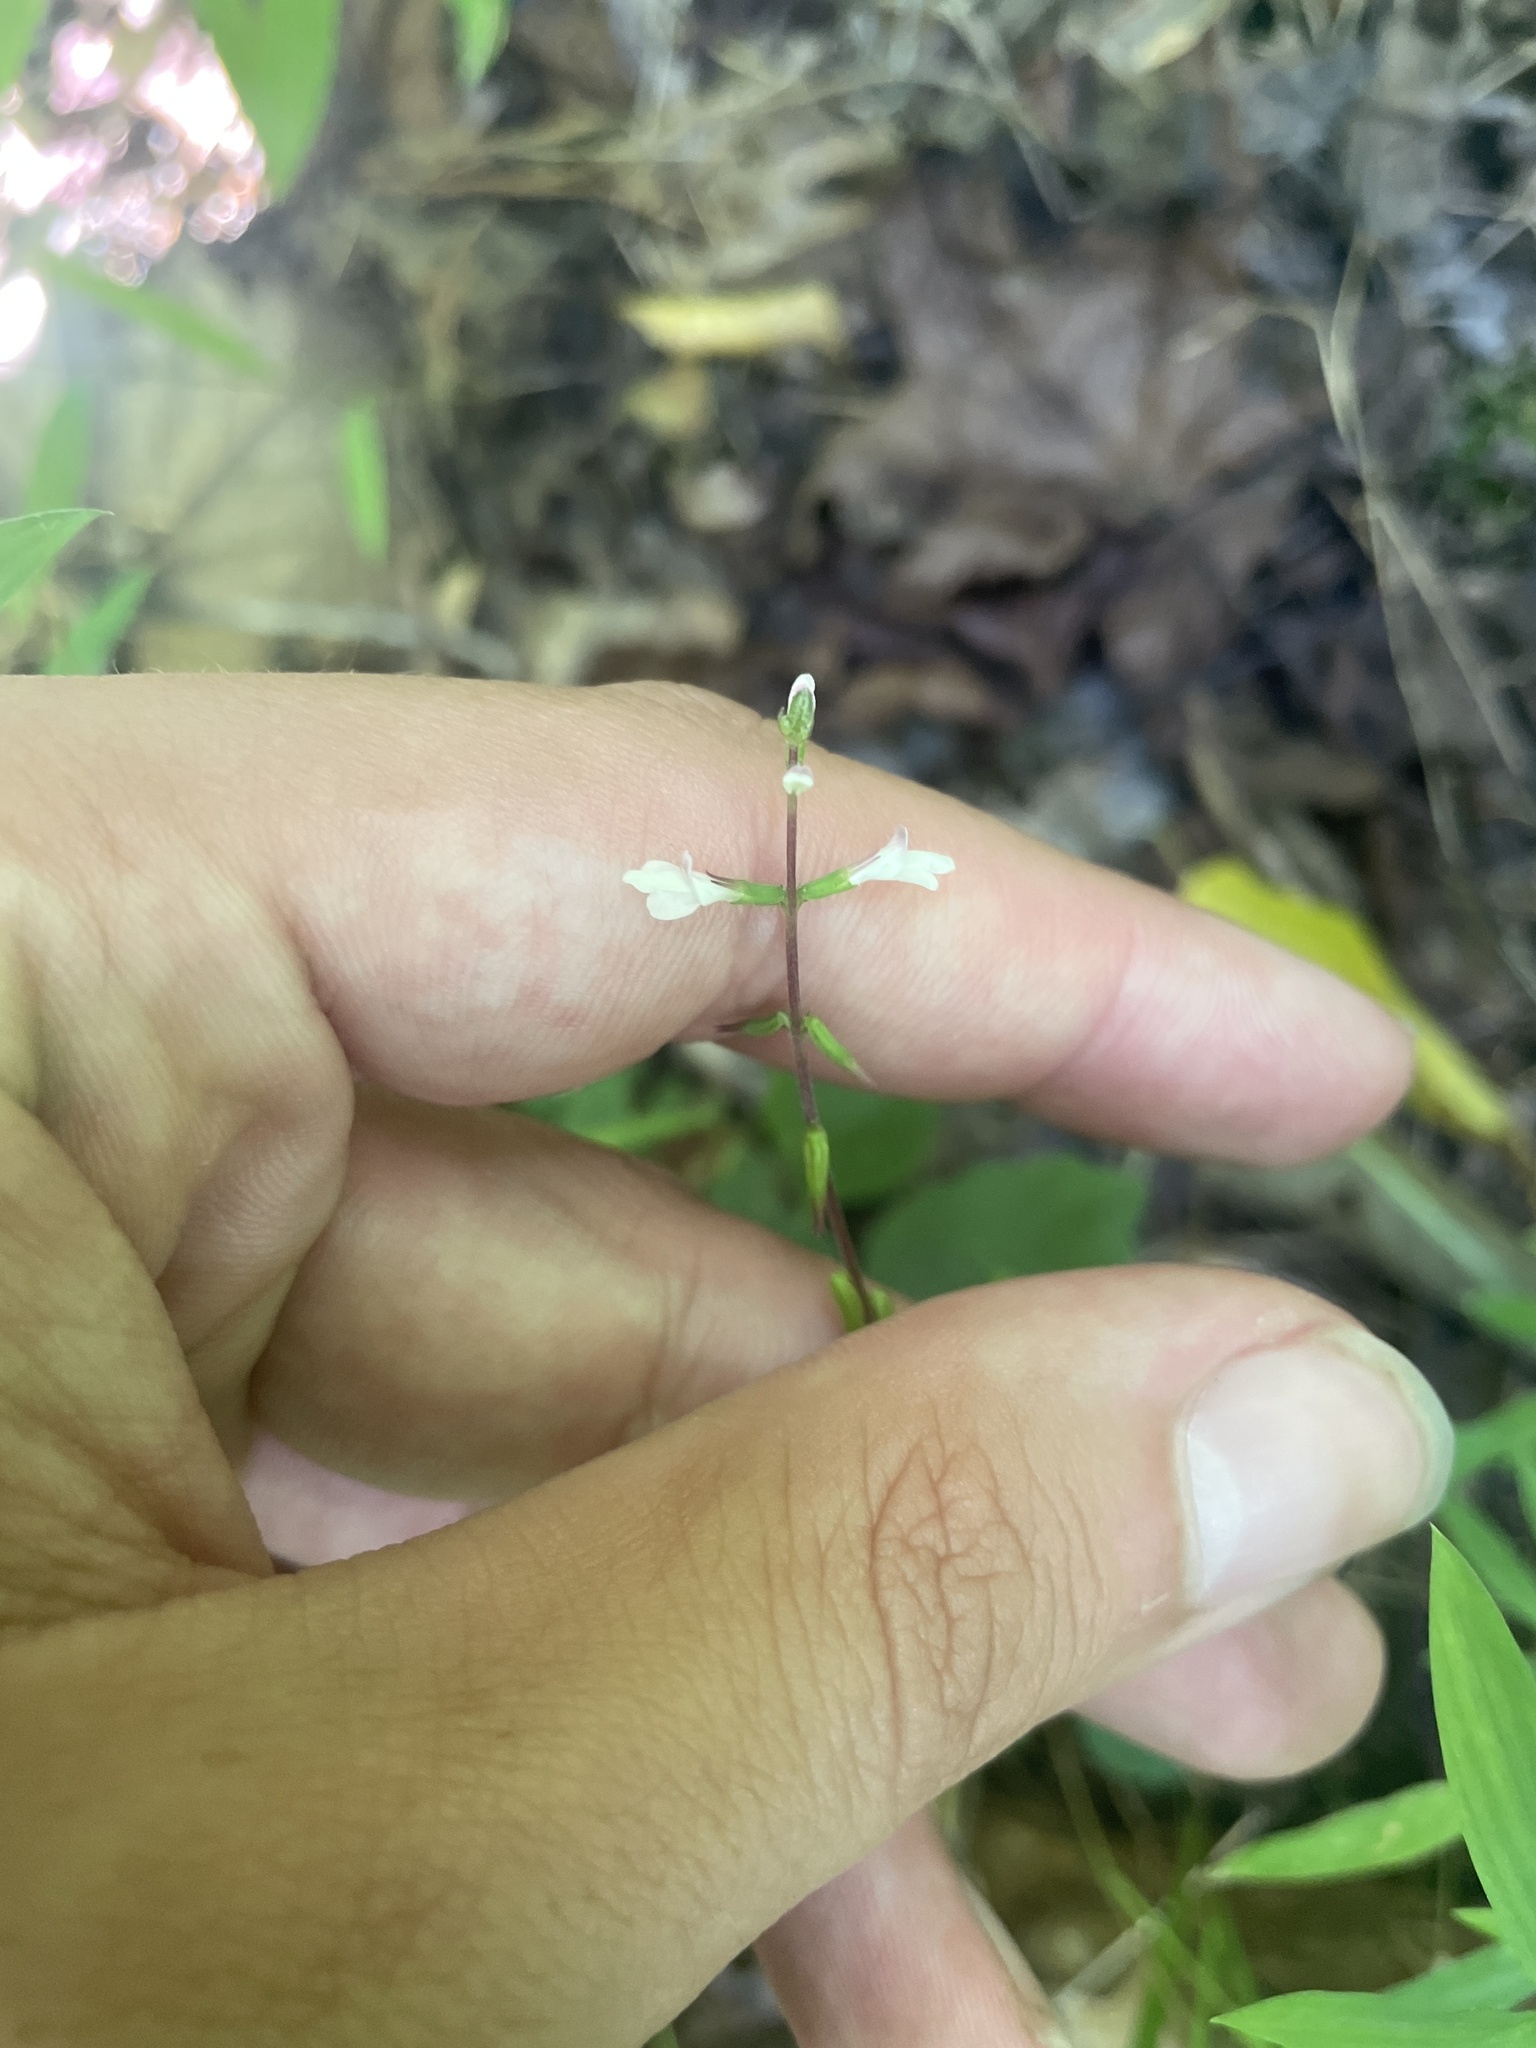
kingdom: Plantae
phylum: Tracheophyta
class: Magnoliopsida
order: Lamiales
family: Phrymaceae
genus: Phryma
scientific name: Phryma leptostachya
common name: American lopseed
